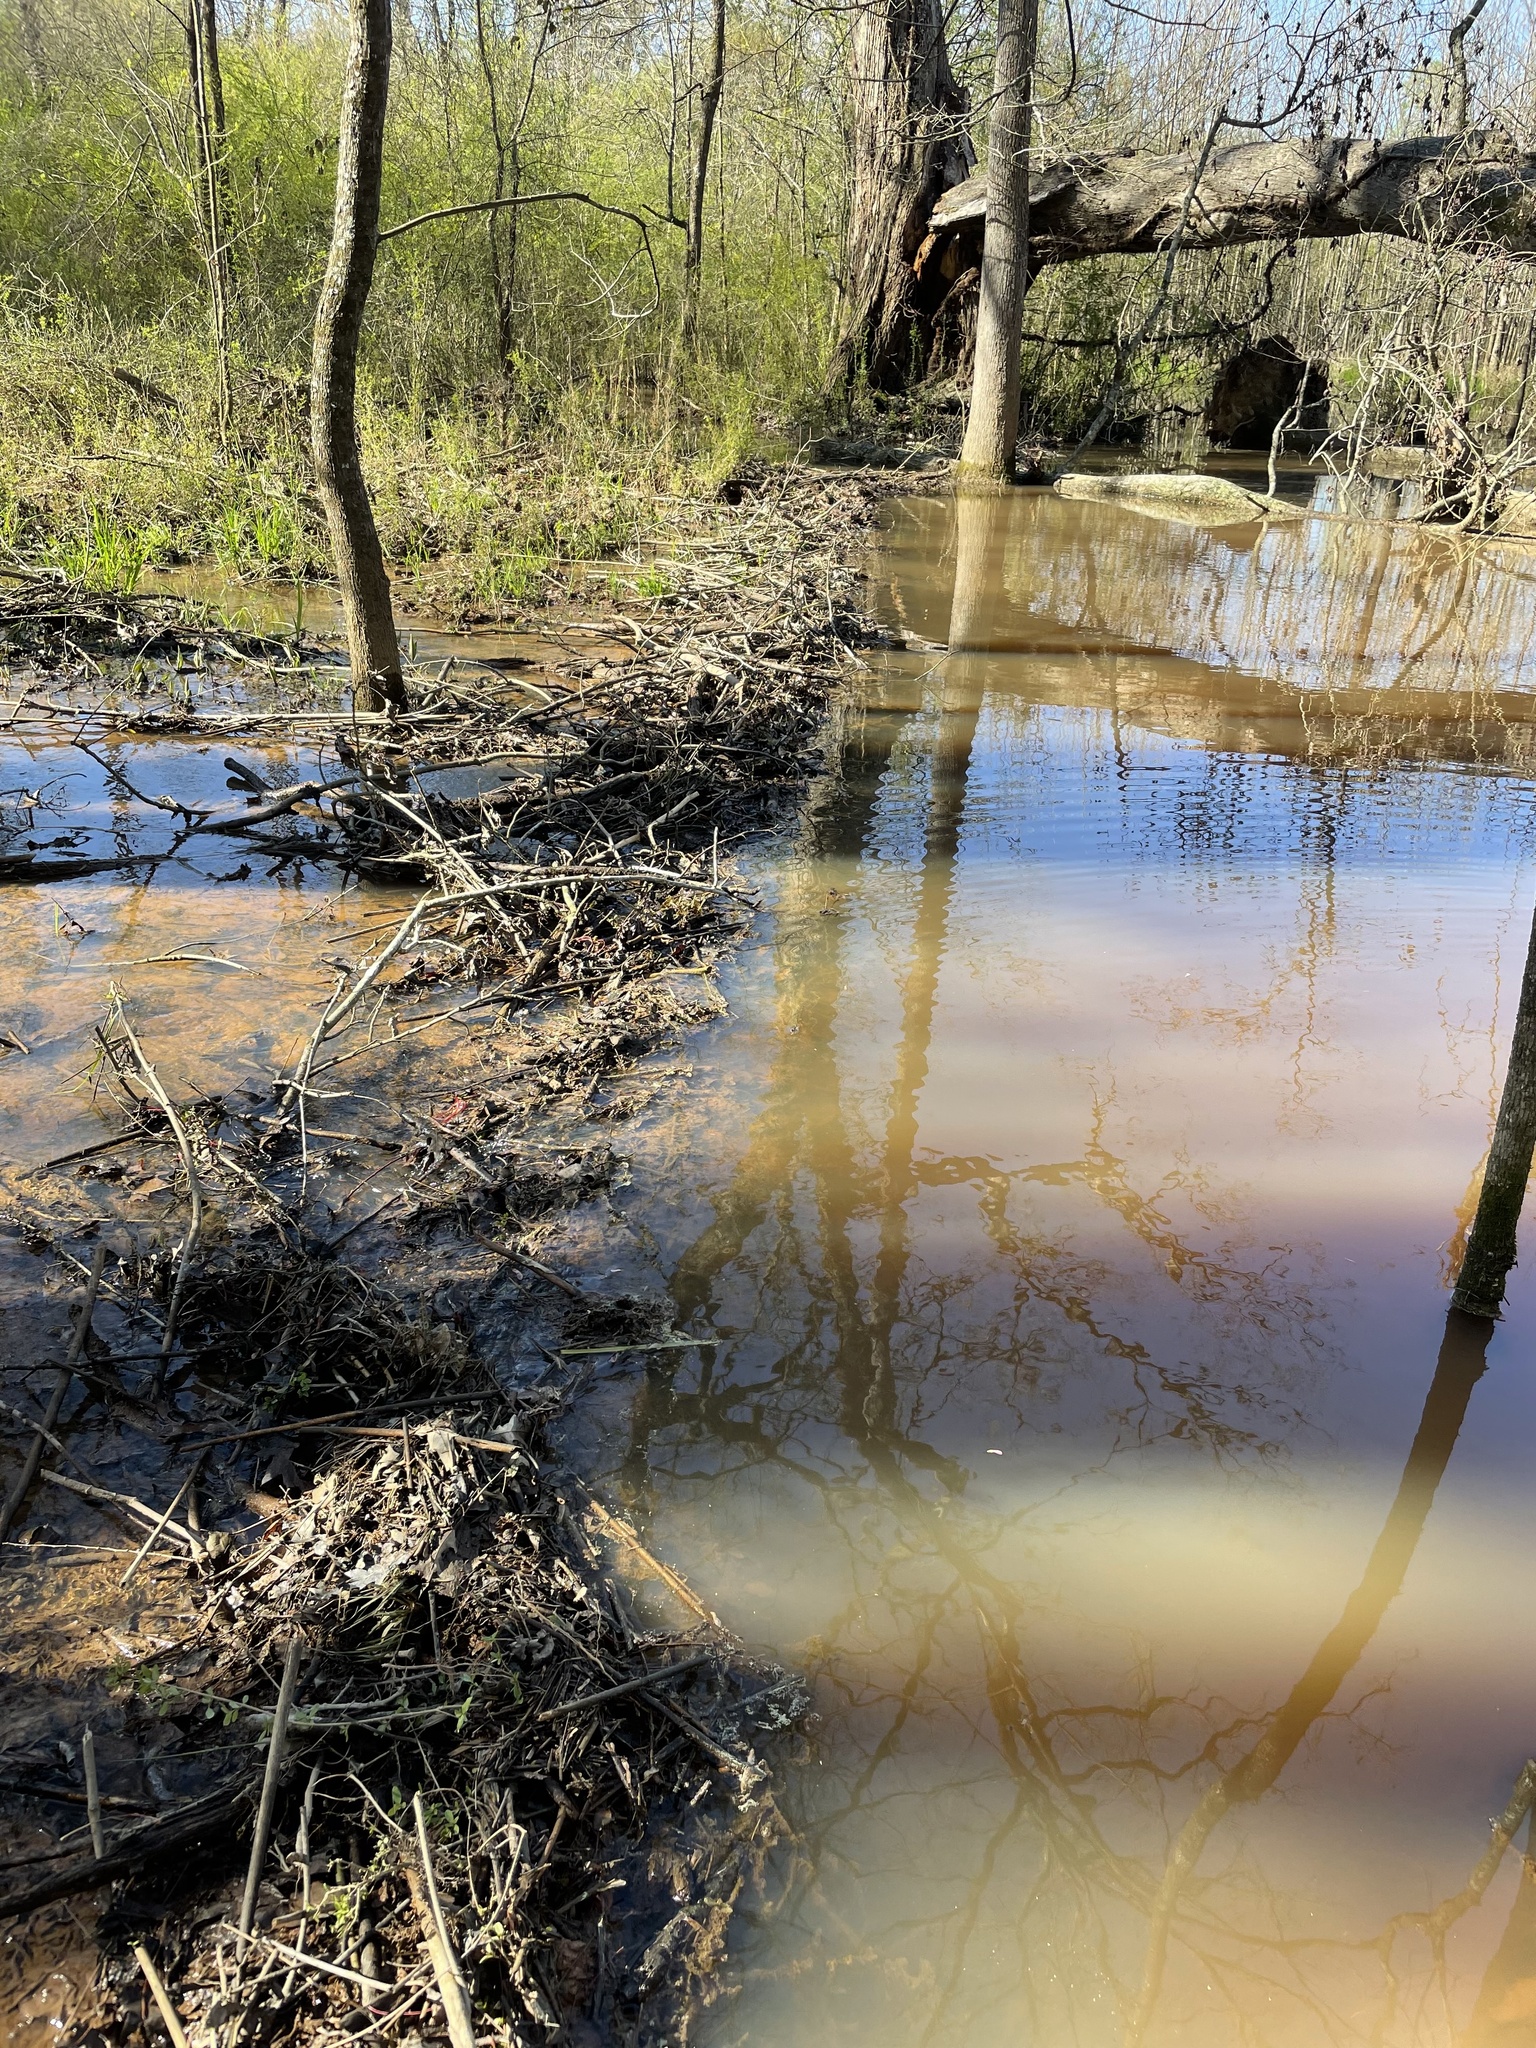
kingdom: Animalia
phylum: Chordata
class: Mammalia
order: Rodentia
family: Castoridae
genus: Castor
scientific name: Castor canadensis
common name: American beaver
